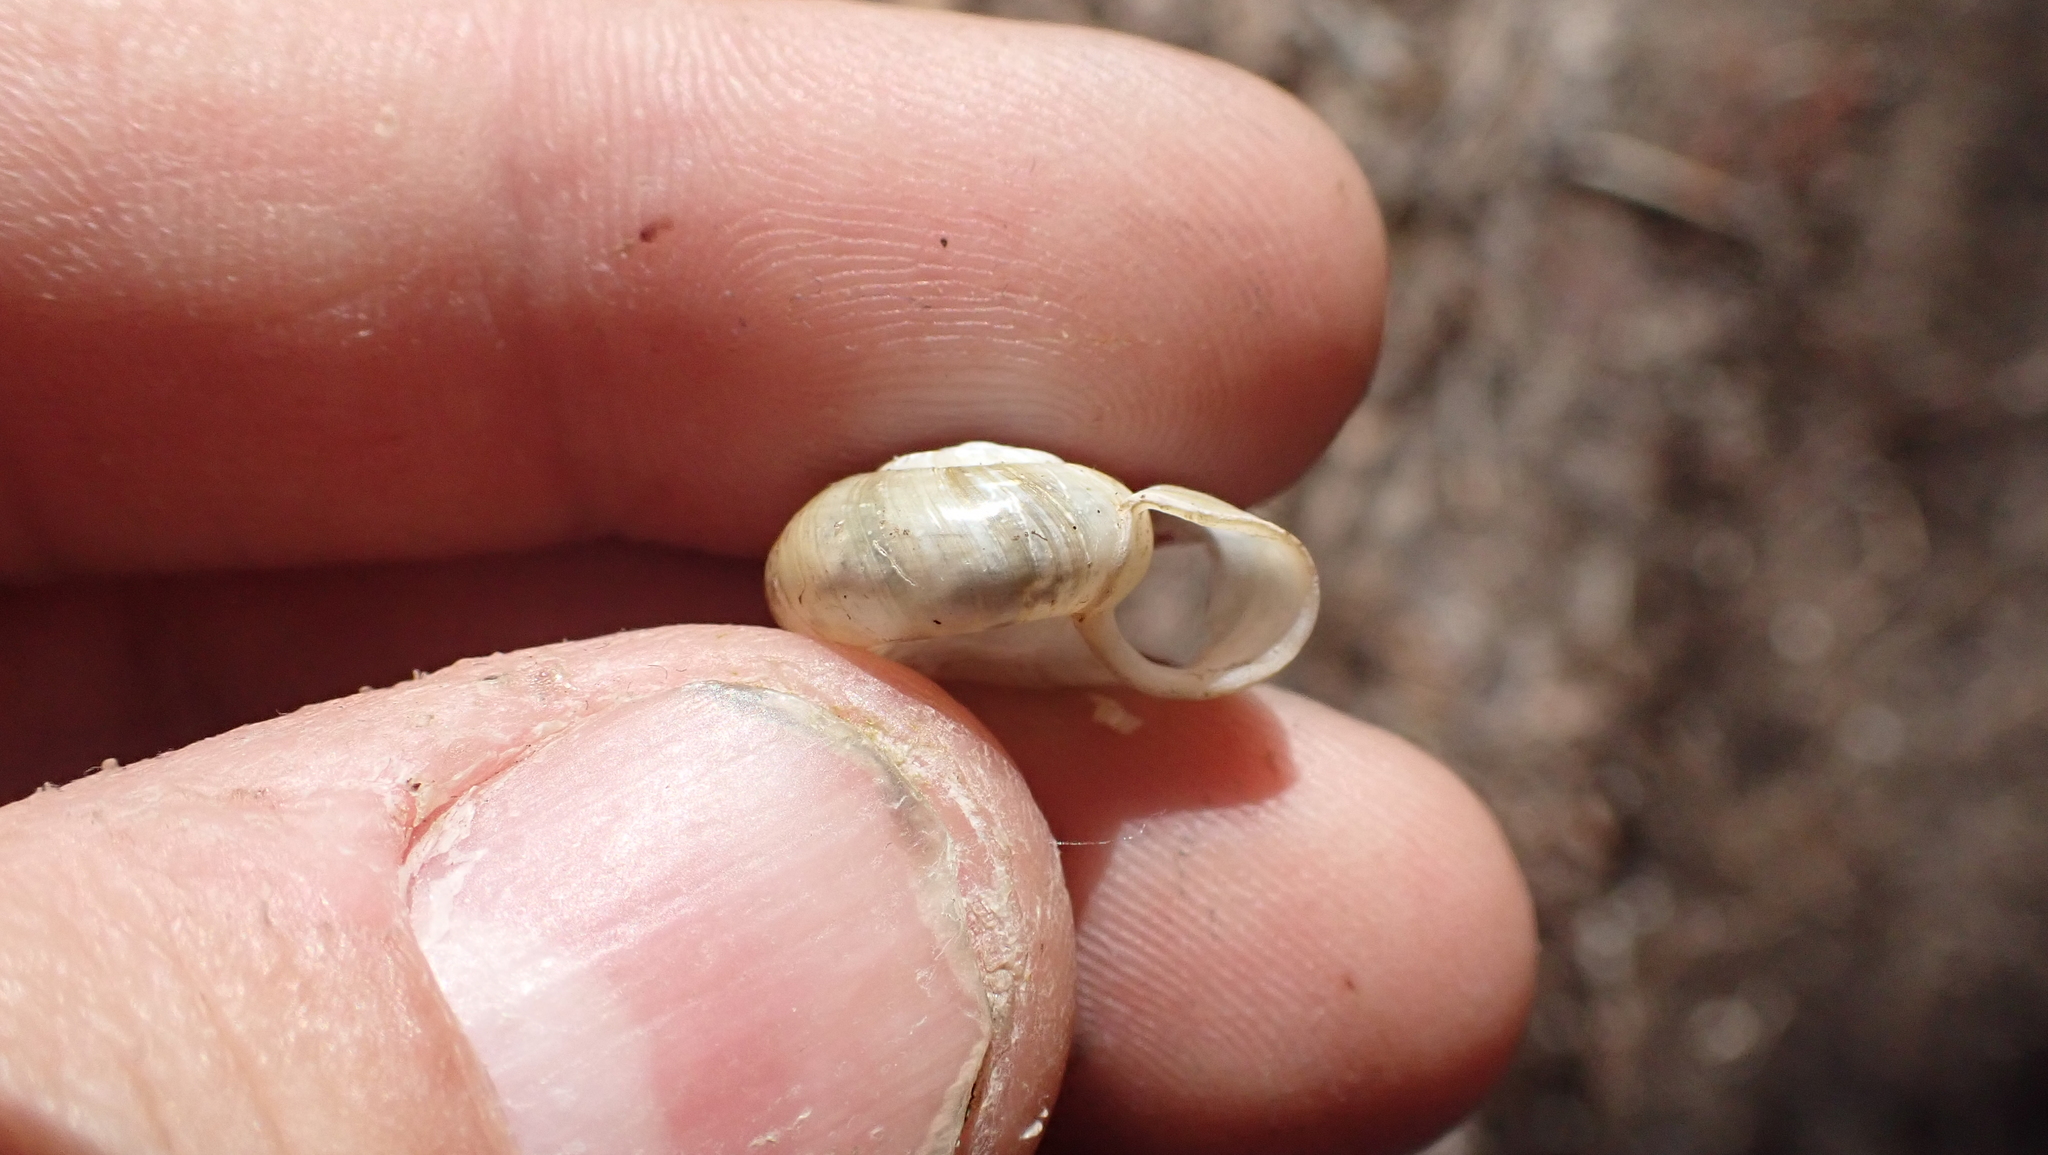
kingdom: Animalia
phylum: Mollusca
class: Gastropoda
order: Stylommatophora
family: Haplotrematidae
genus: Haplotrema
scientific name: Haplotrema concavum
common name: Gray-foot lancetooth
